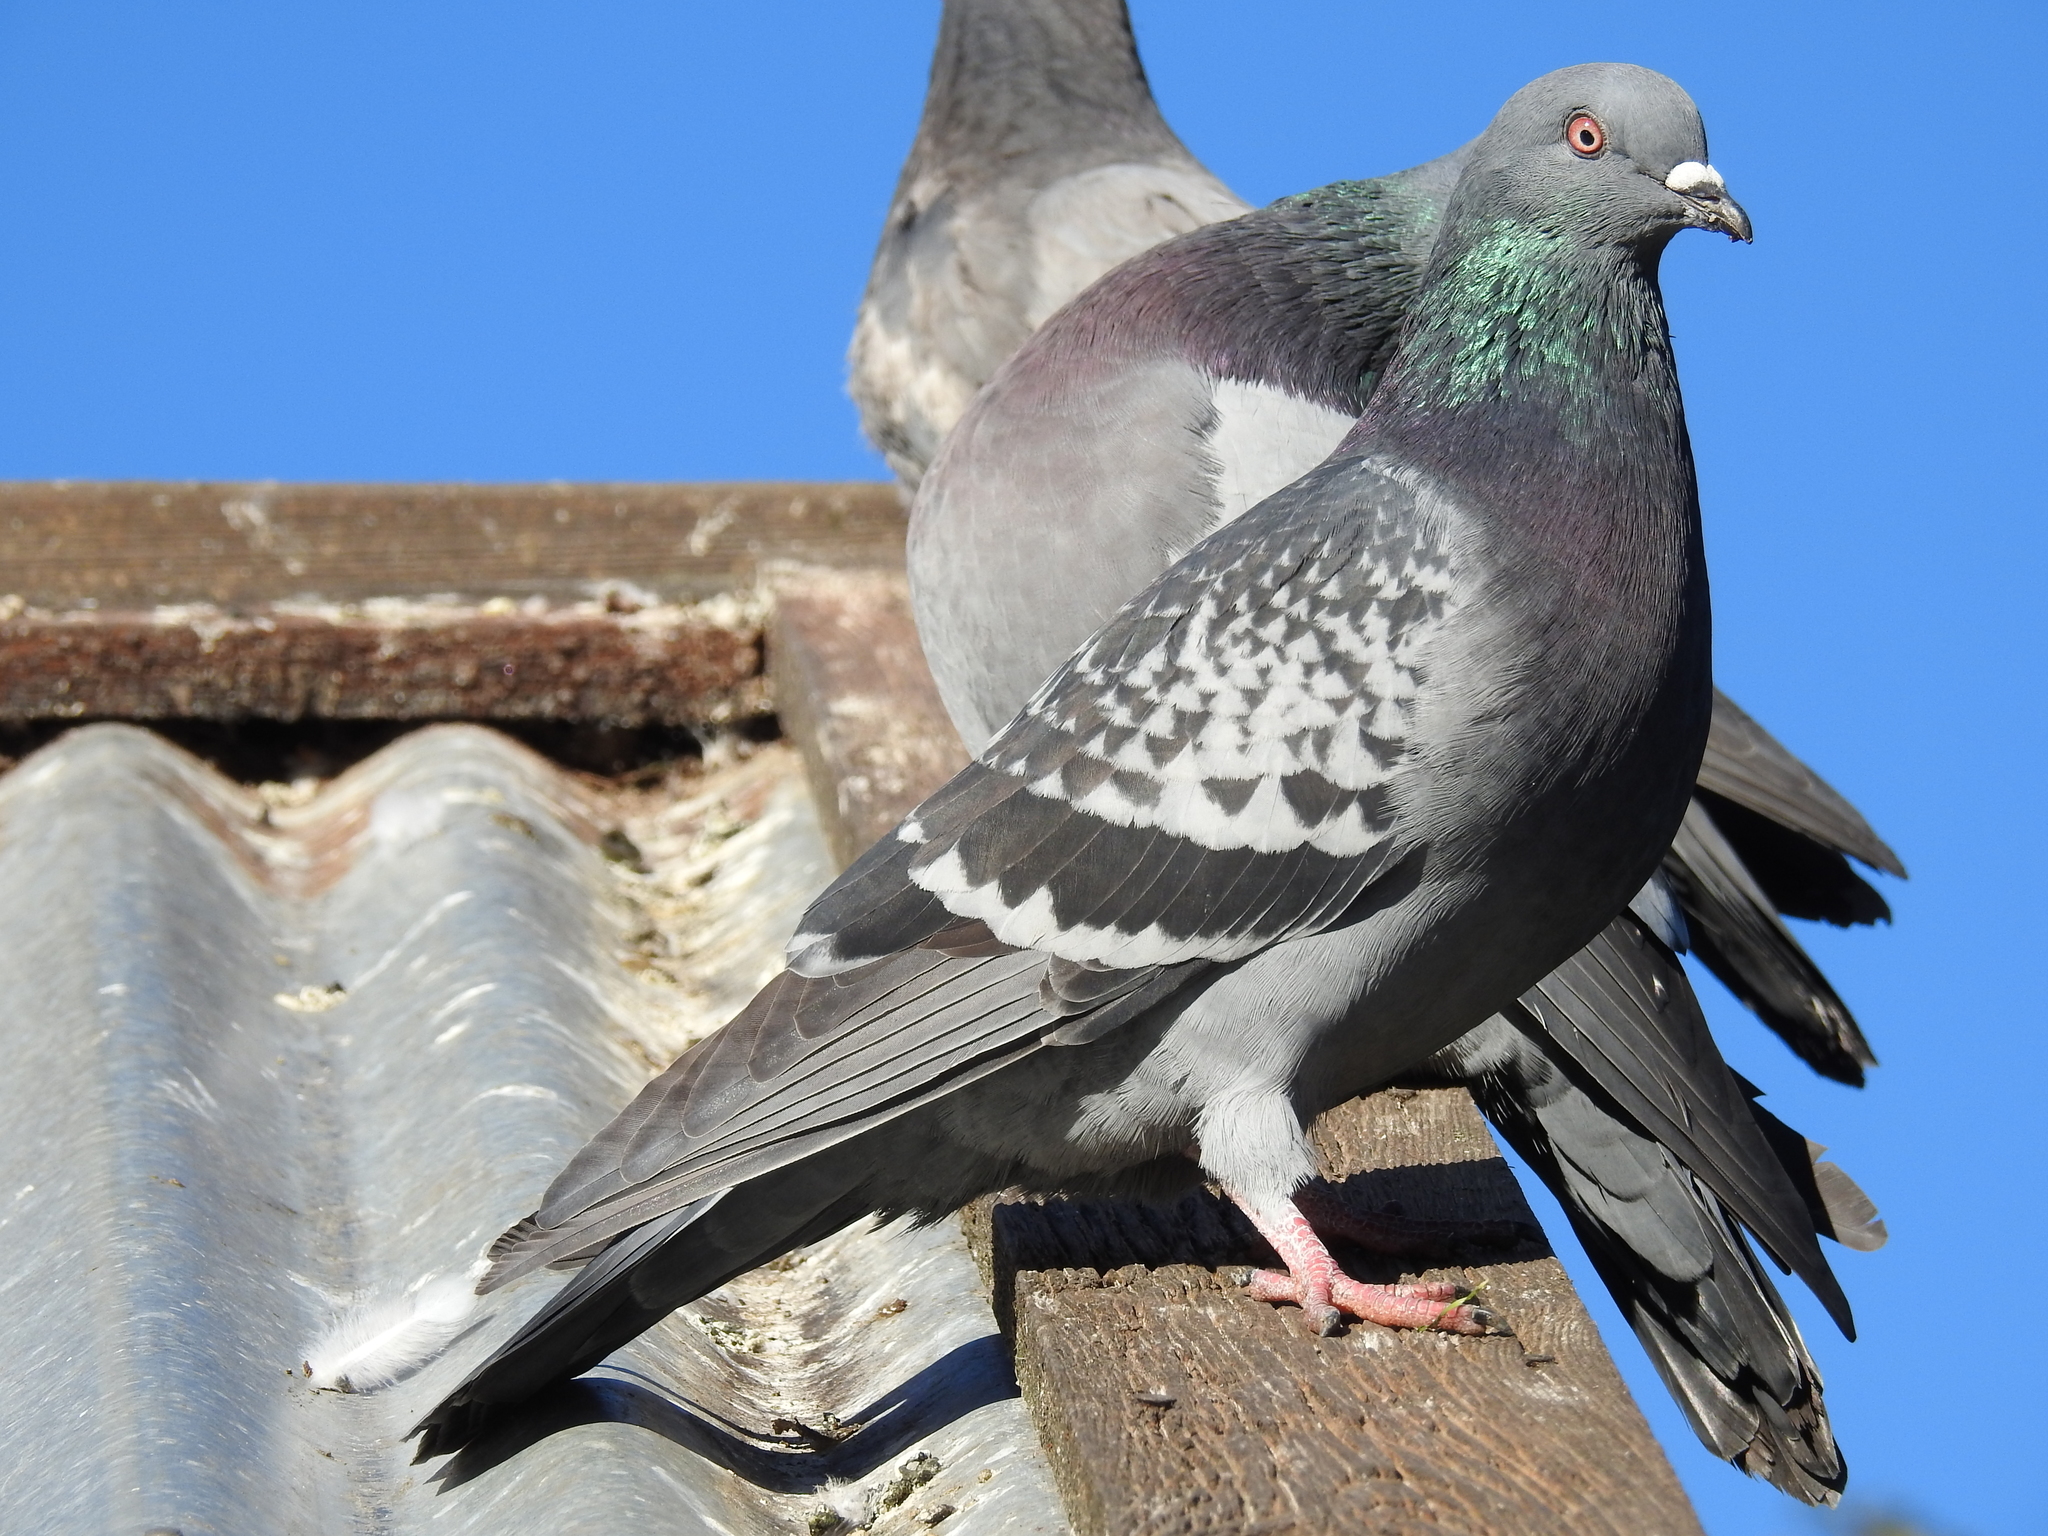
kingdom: Animalia
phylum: Chordata
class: Aves
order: Columbiformes
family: Columbidae
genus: Columba
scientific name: Columba livia
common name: Rock pigeon
